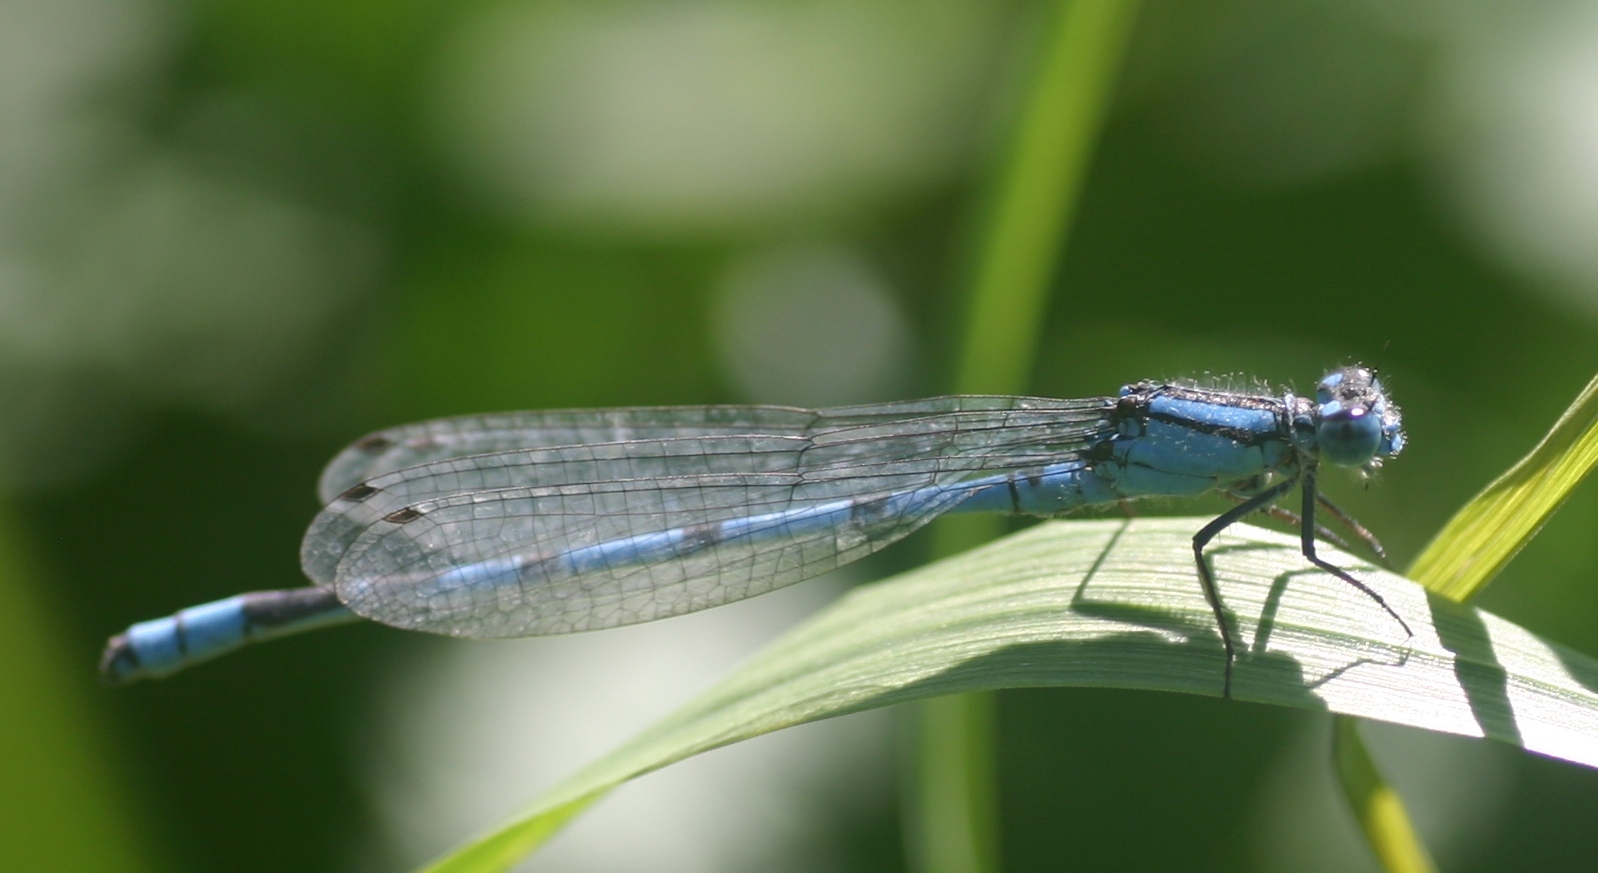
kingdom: Animalia
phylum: Arthropoda
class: Insecta
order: Odonata
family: Coenagrionidae
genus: Enallagma
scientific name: Enallagma cyathigerum
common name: Common blue damselfly
